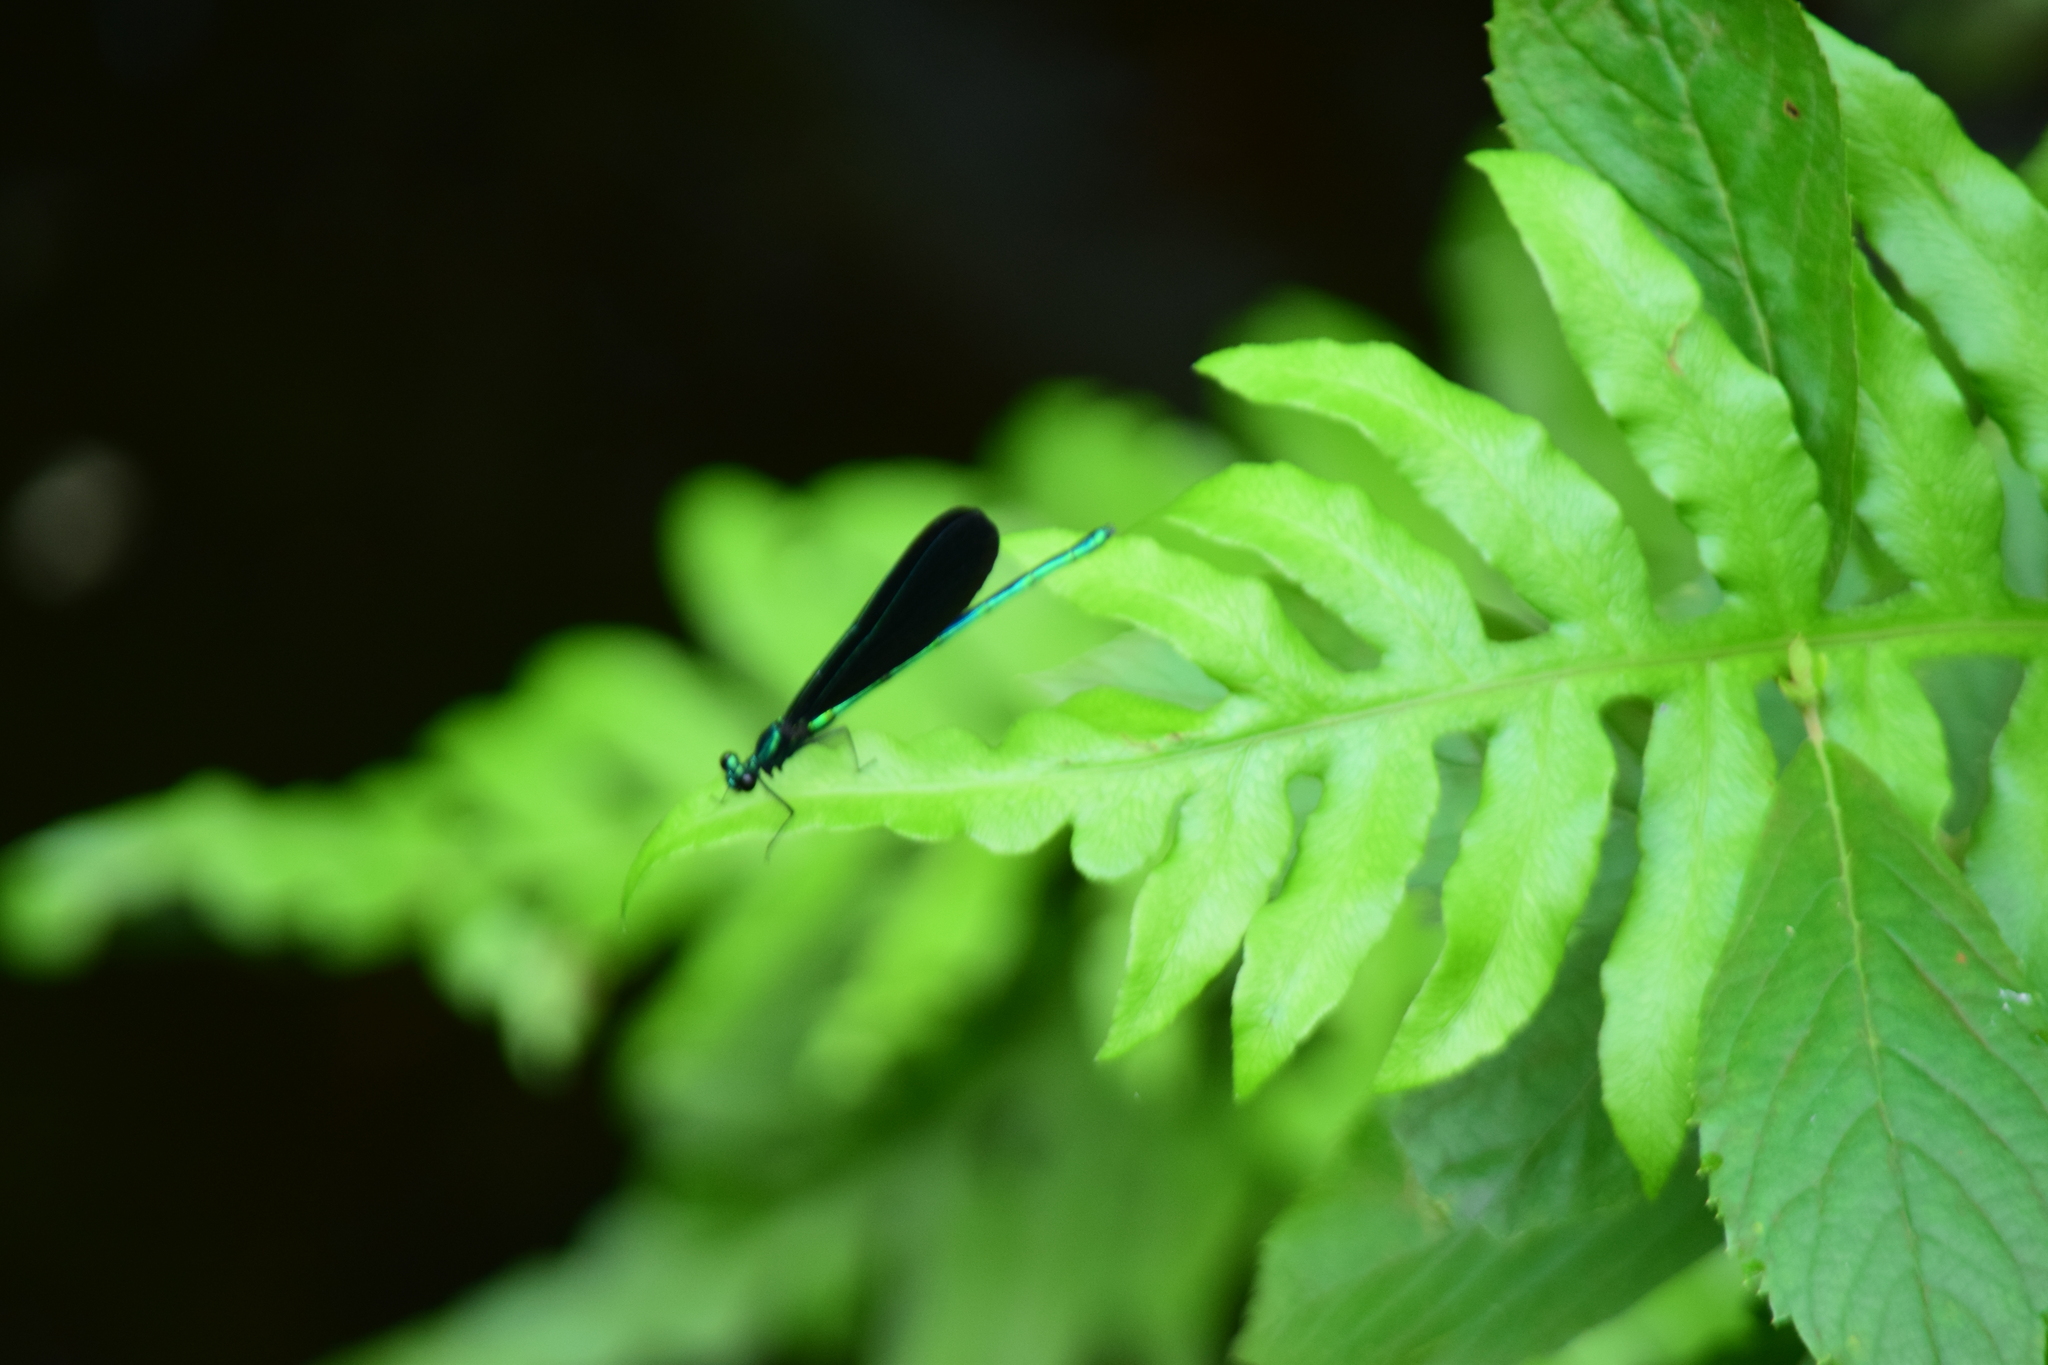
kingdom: Animalia
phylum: Arthropoda
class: Insecta
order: Odonata
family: Calopterygidae
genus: Calopteryx
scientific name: Calopteryx maculata
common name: Ebony jewelwing
